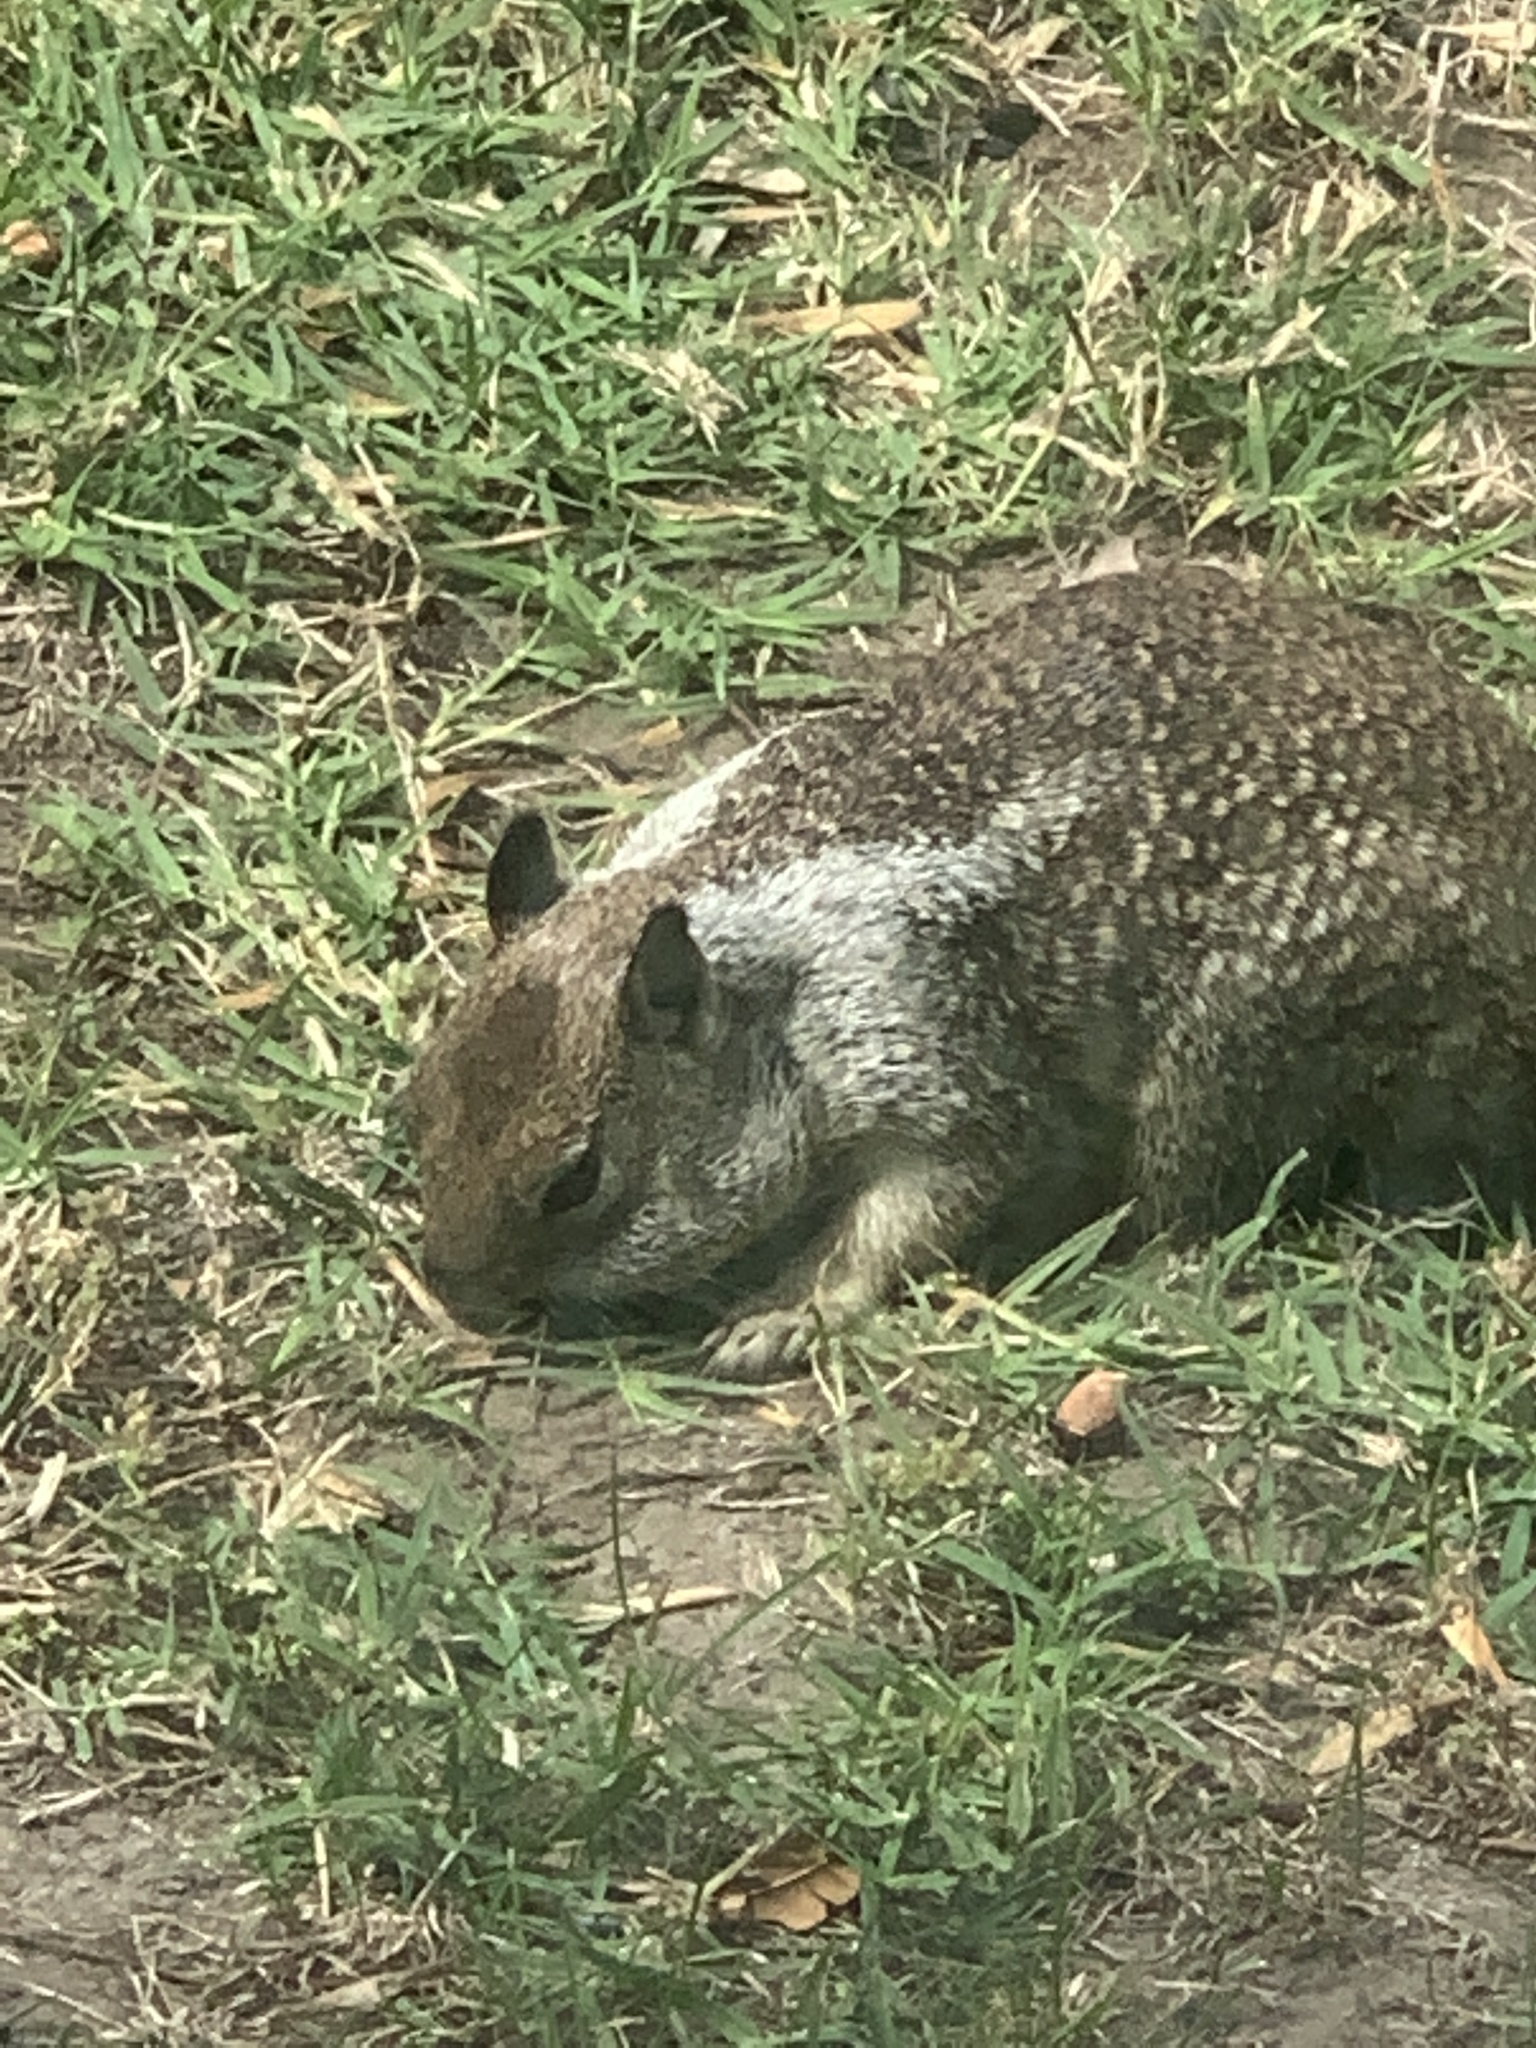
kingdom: Animalia
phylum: Chordata
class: Mammalia
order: Rodentia
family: Sciuridae
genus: Otospermophilus
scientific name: Otospermophilus beecheyi
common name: California ground squirrel
